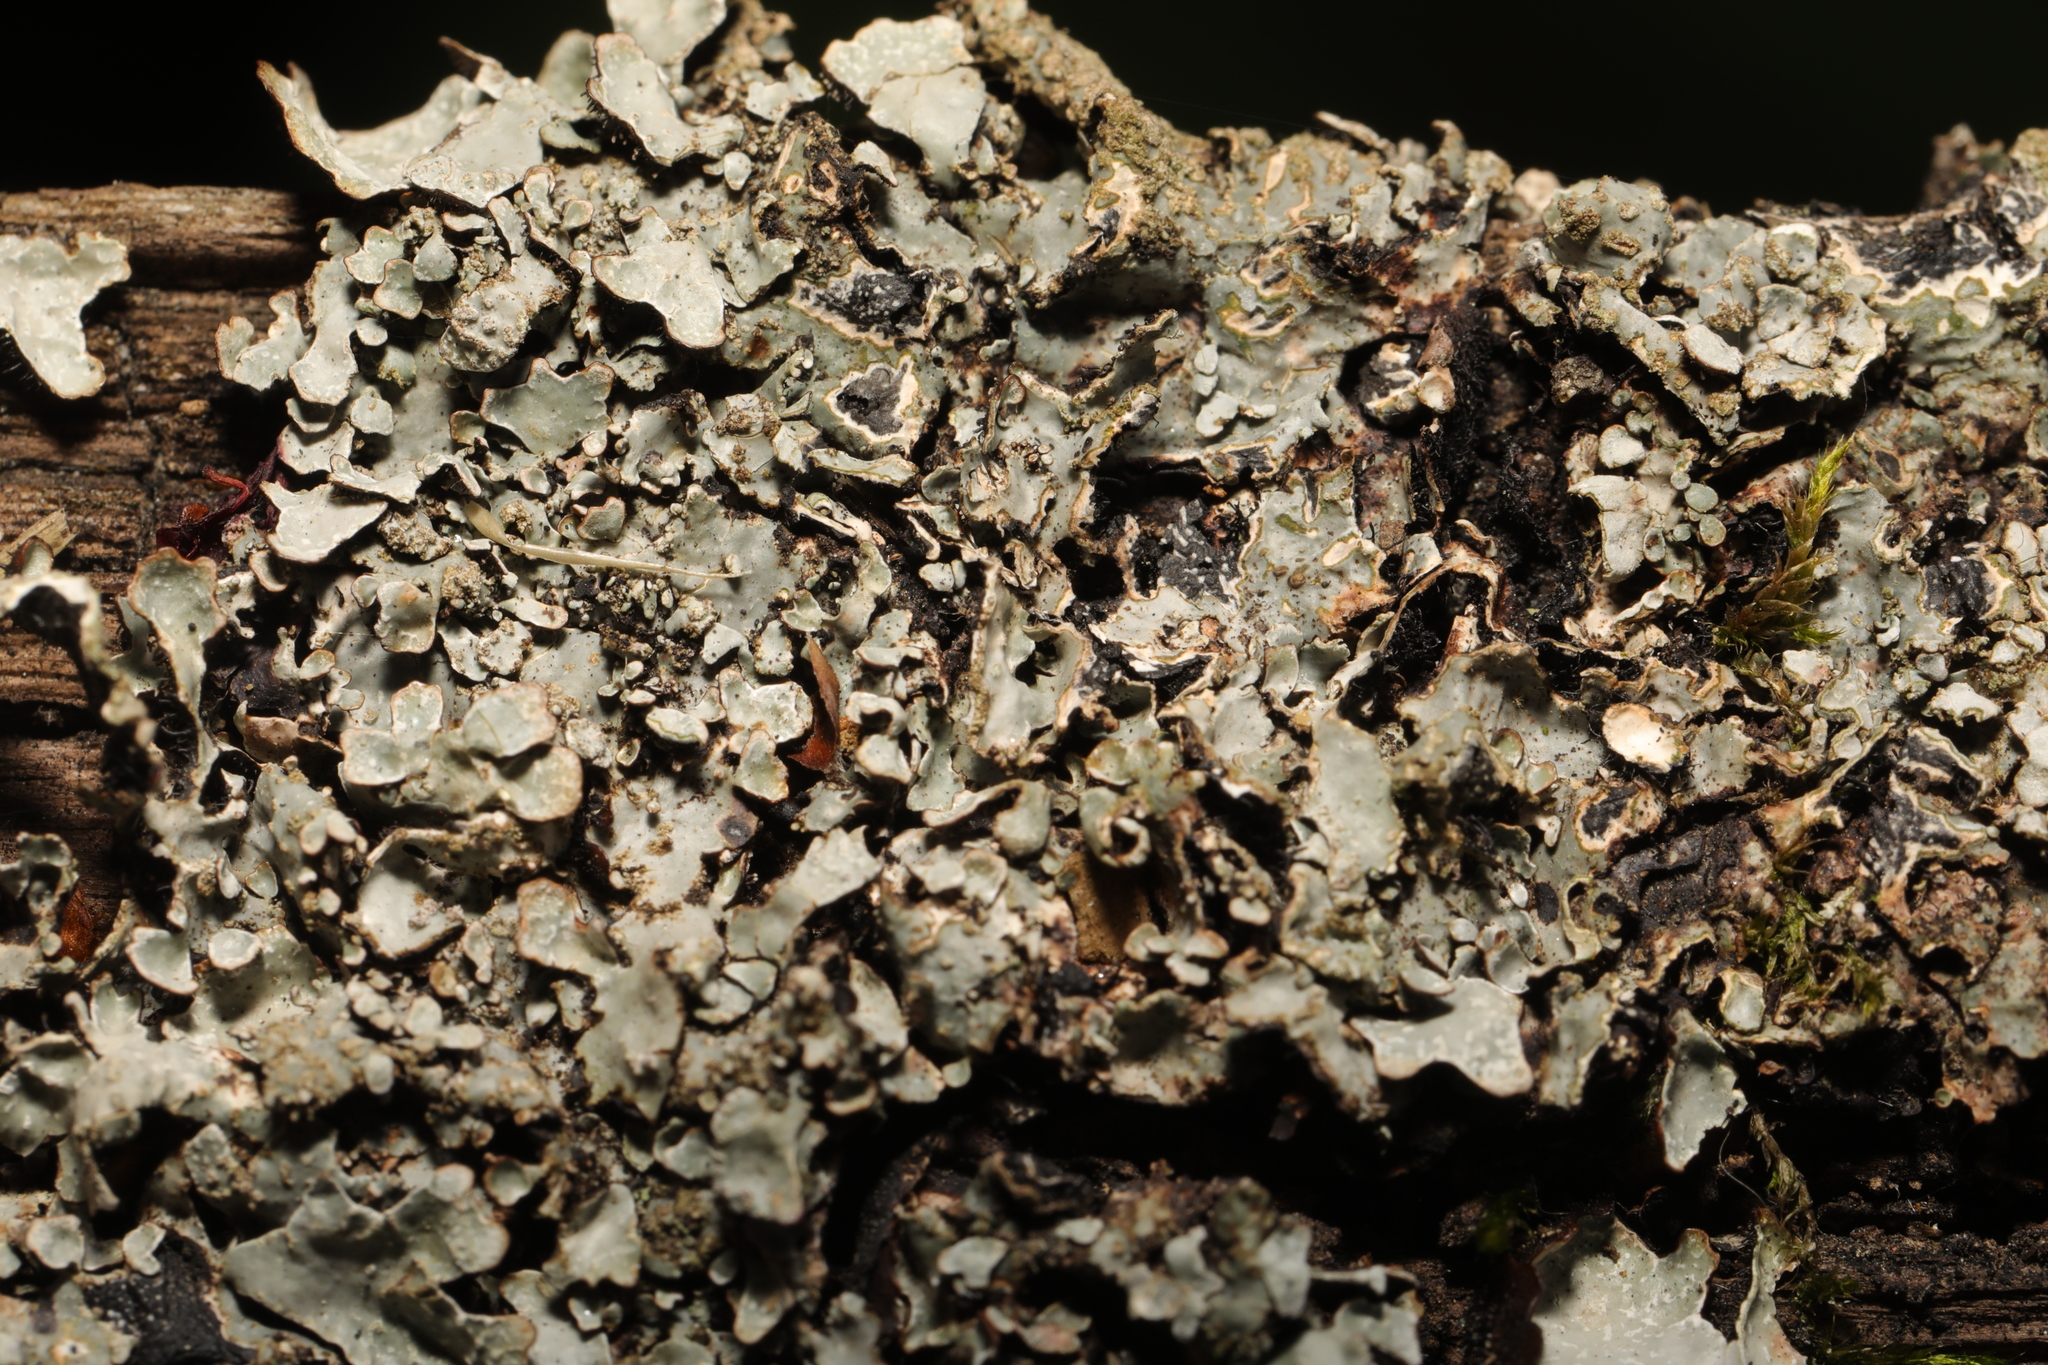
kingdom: Fungi
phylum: Ascomycota
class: Lecanoromycetes
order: Lecanorales
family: Parmeliaceae
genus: Parmelia
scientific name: Parmelia sulcata
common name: Netted shield lichen
